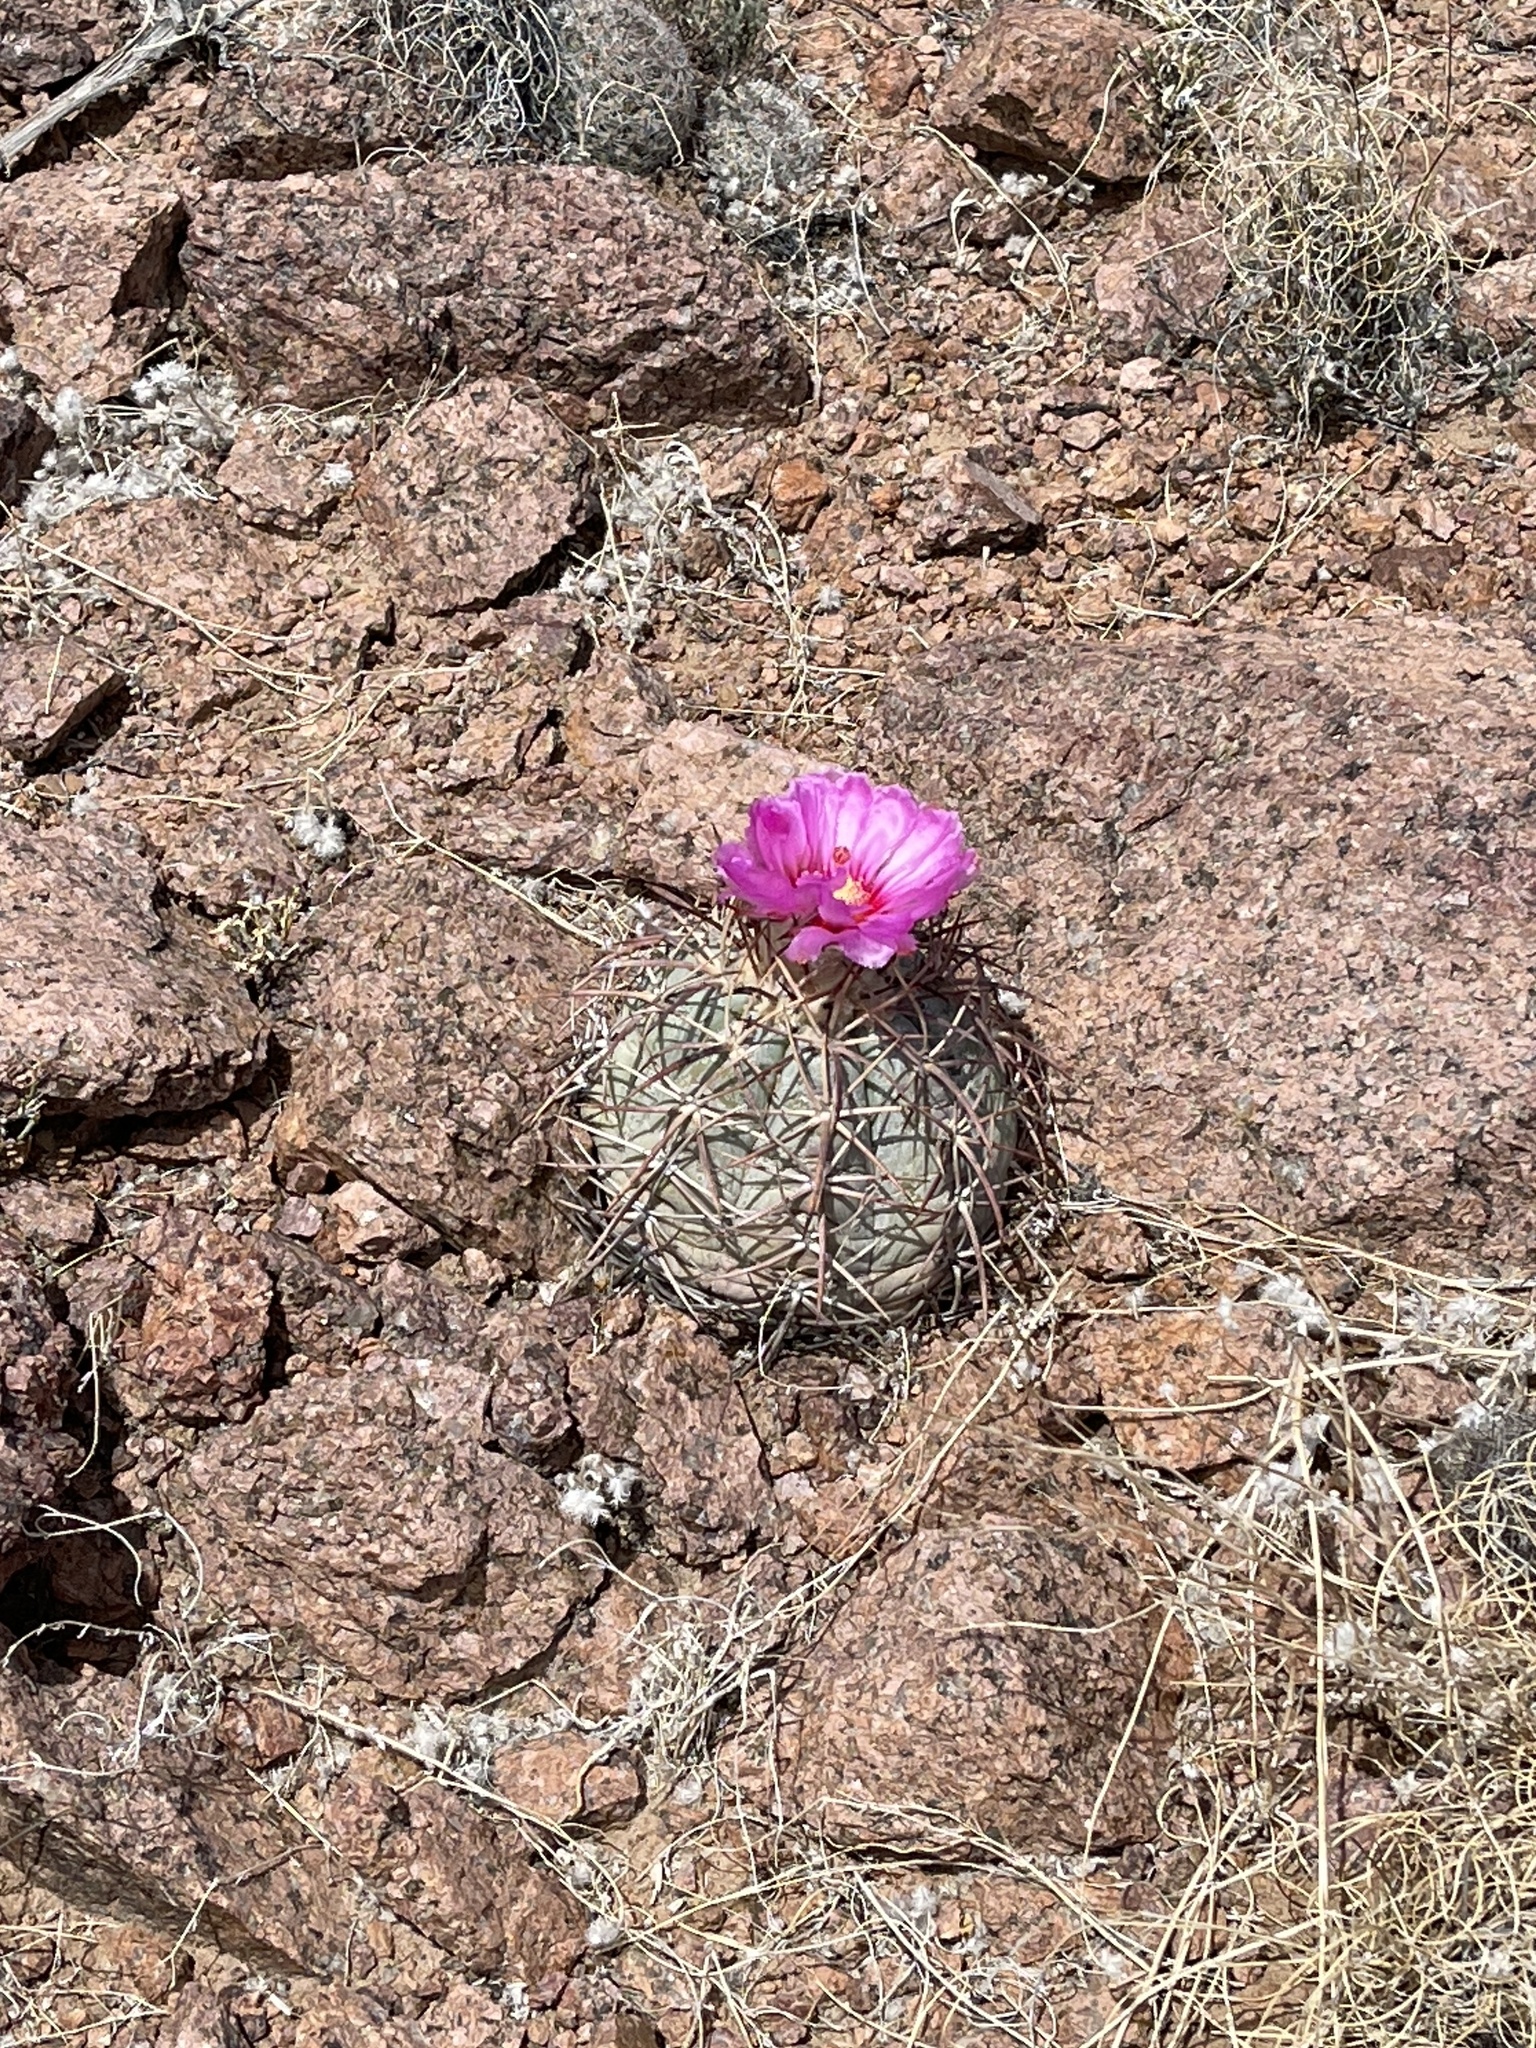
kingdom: Plantae
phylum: Tracheophyta
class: Magnoliopsida
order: Caryophyllales
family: Cactaceae
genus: Echinocactus
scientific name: Echinocactus horizonthalonius
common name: Devilshead
